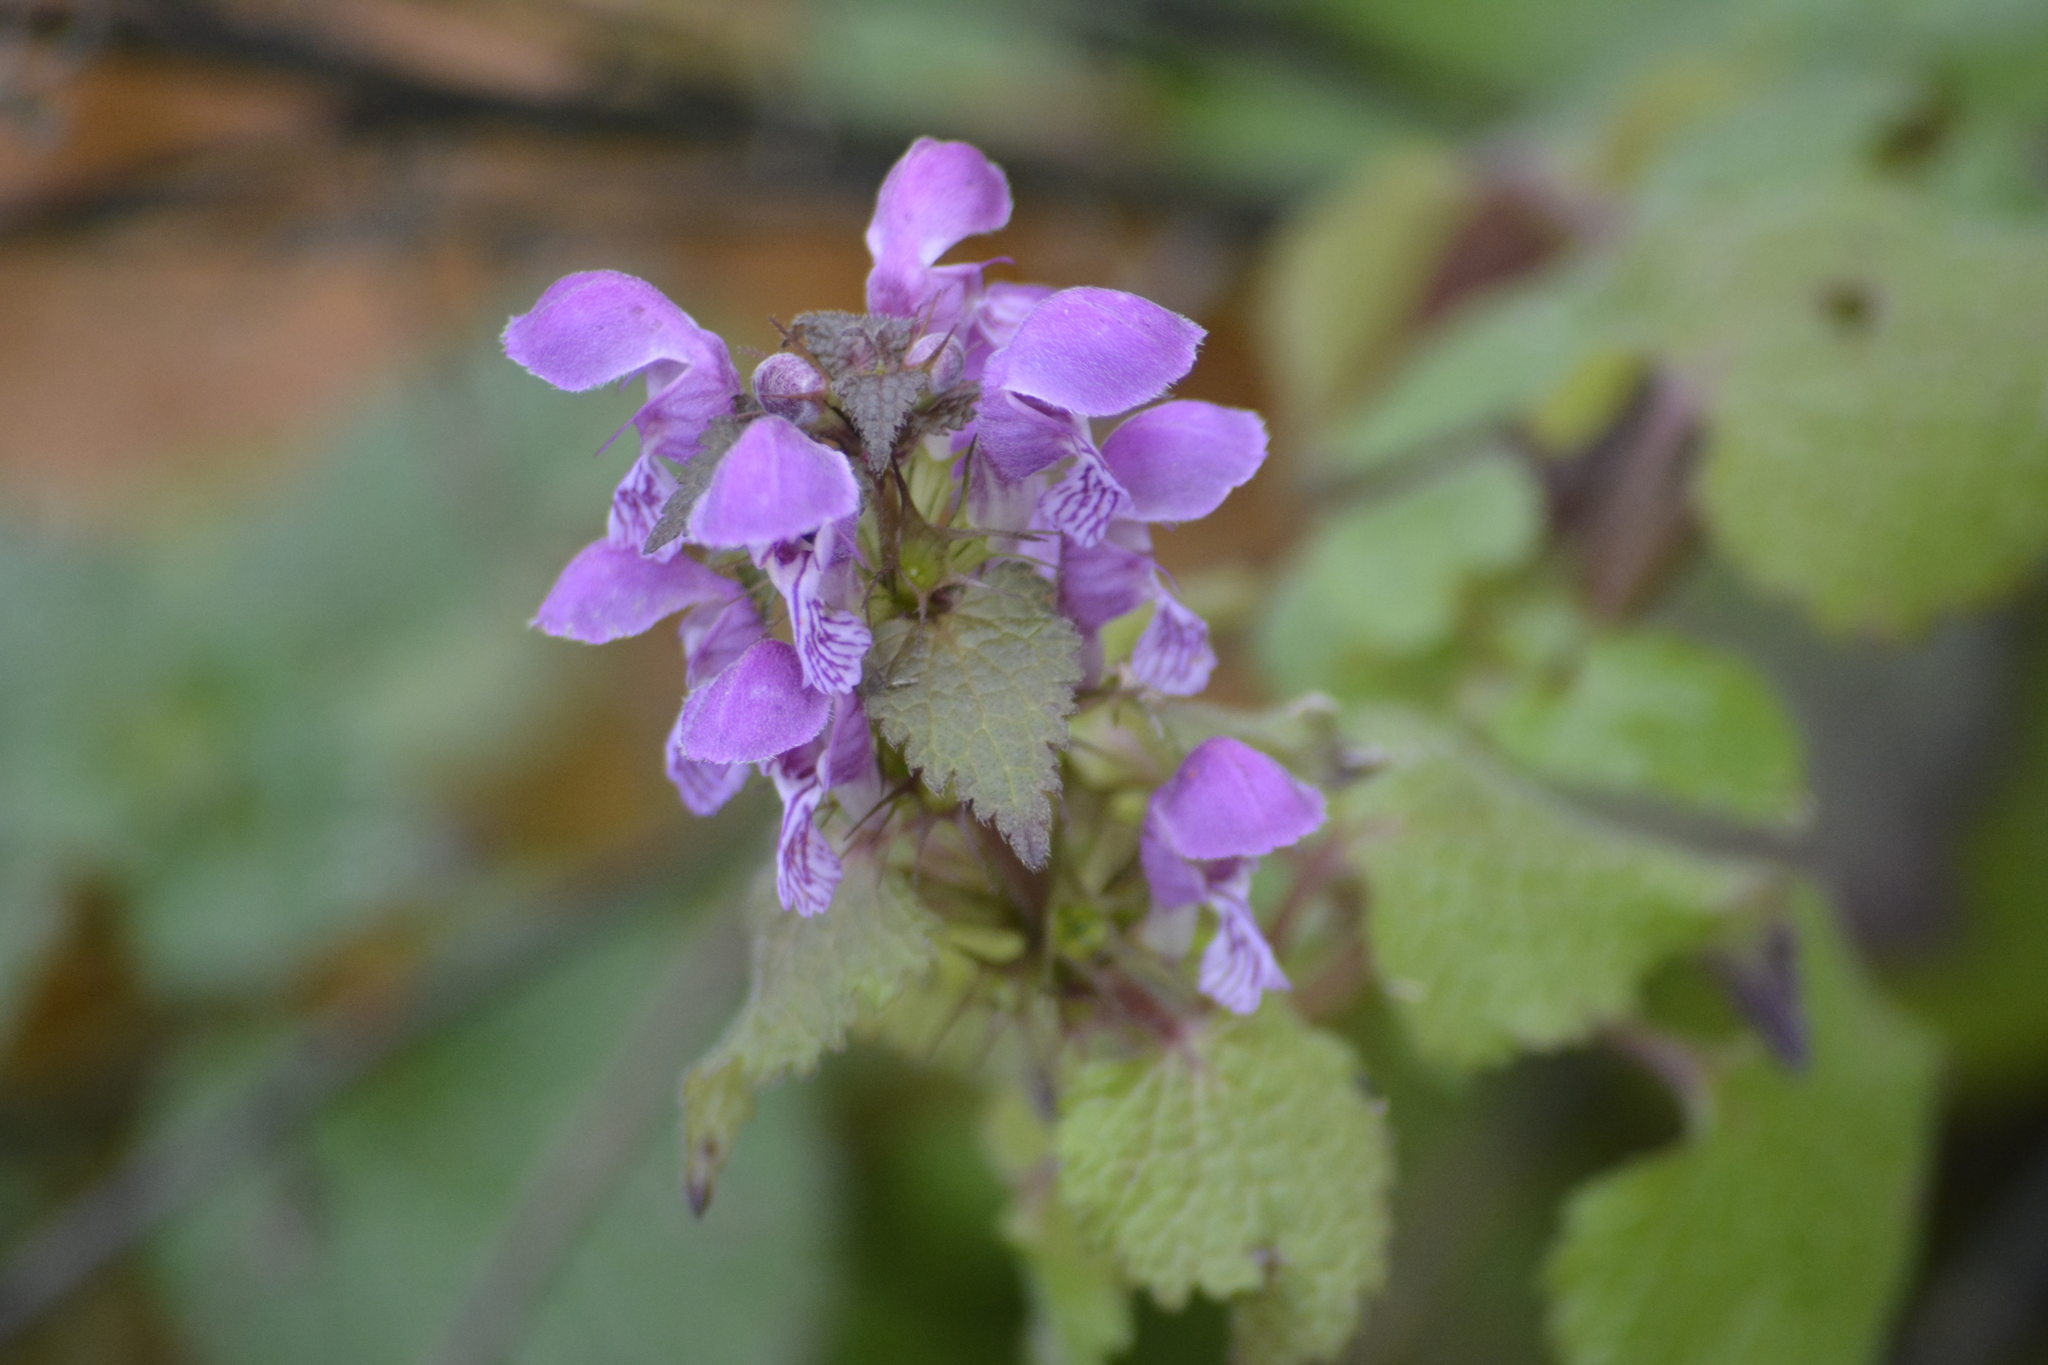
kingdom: Plantae
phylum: Tracheophyta
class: Magnoliopsida
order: Lamiales
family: Lamiaceae
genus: Lamium
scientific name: Lamium maculatum
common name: Spotted dead-nettle
